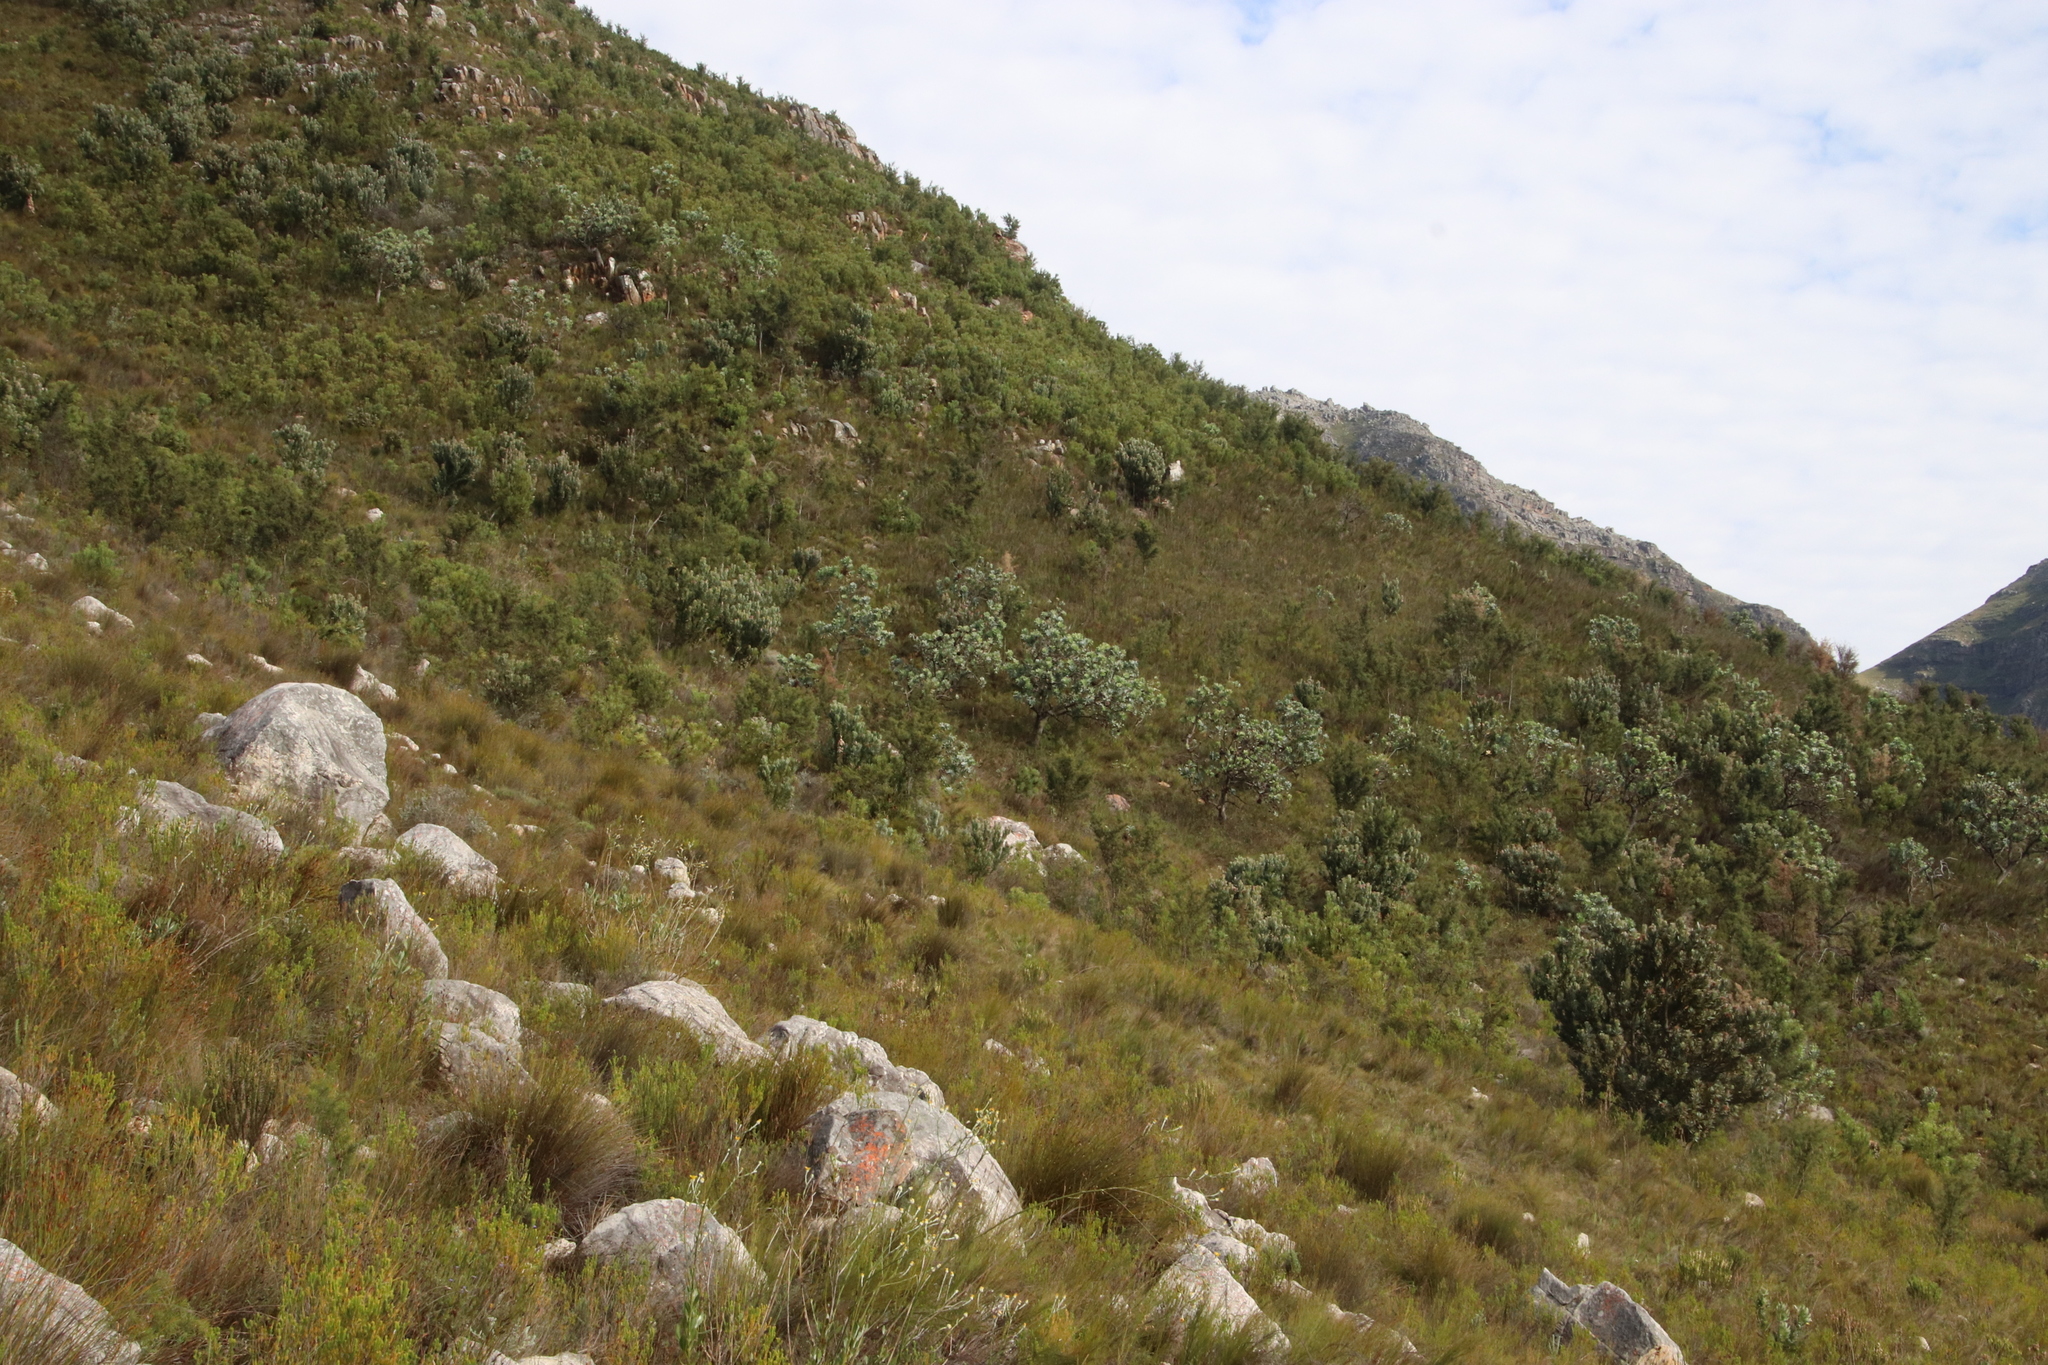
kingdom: Plantae
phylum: Tracheophyta
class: Magnoliopsida
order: Proteales
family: Proteaceae
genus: Protea
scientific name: Protea nitida
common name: Tree protea
